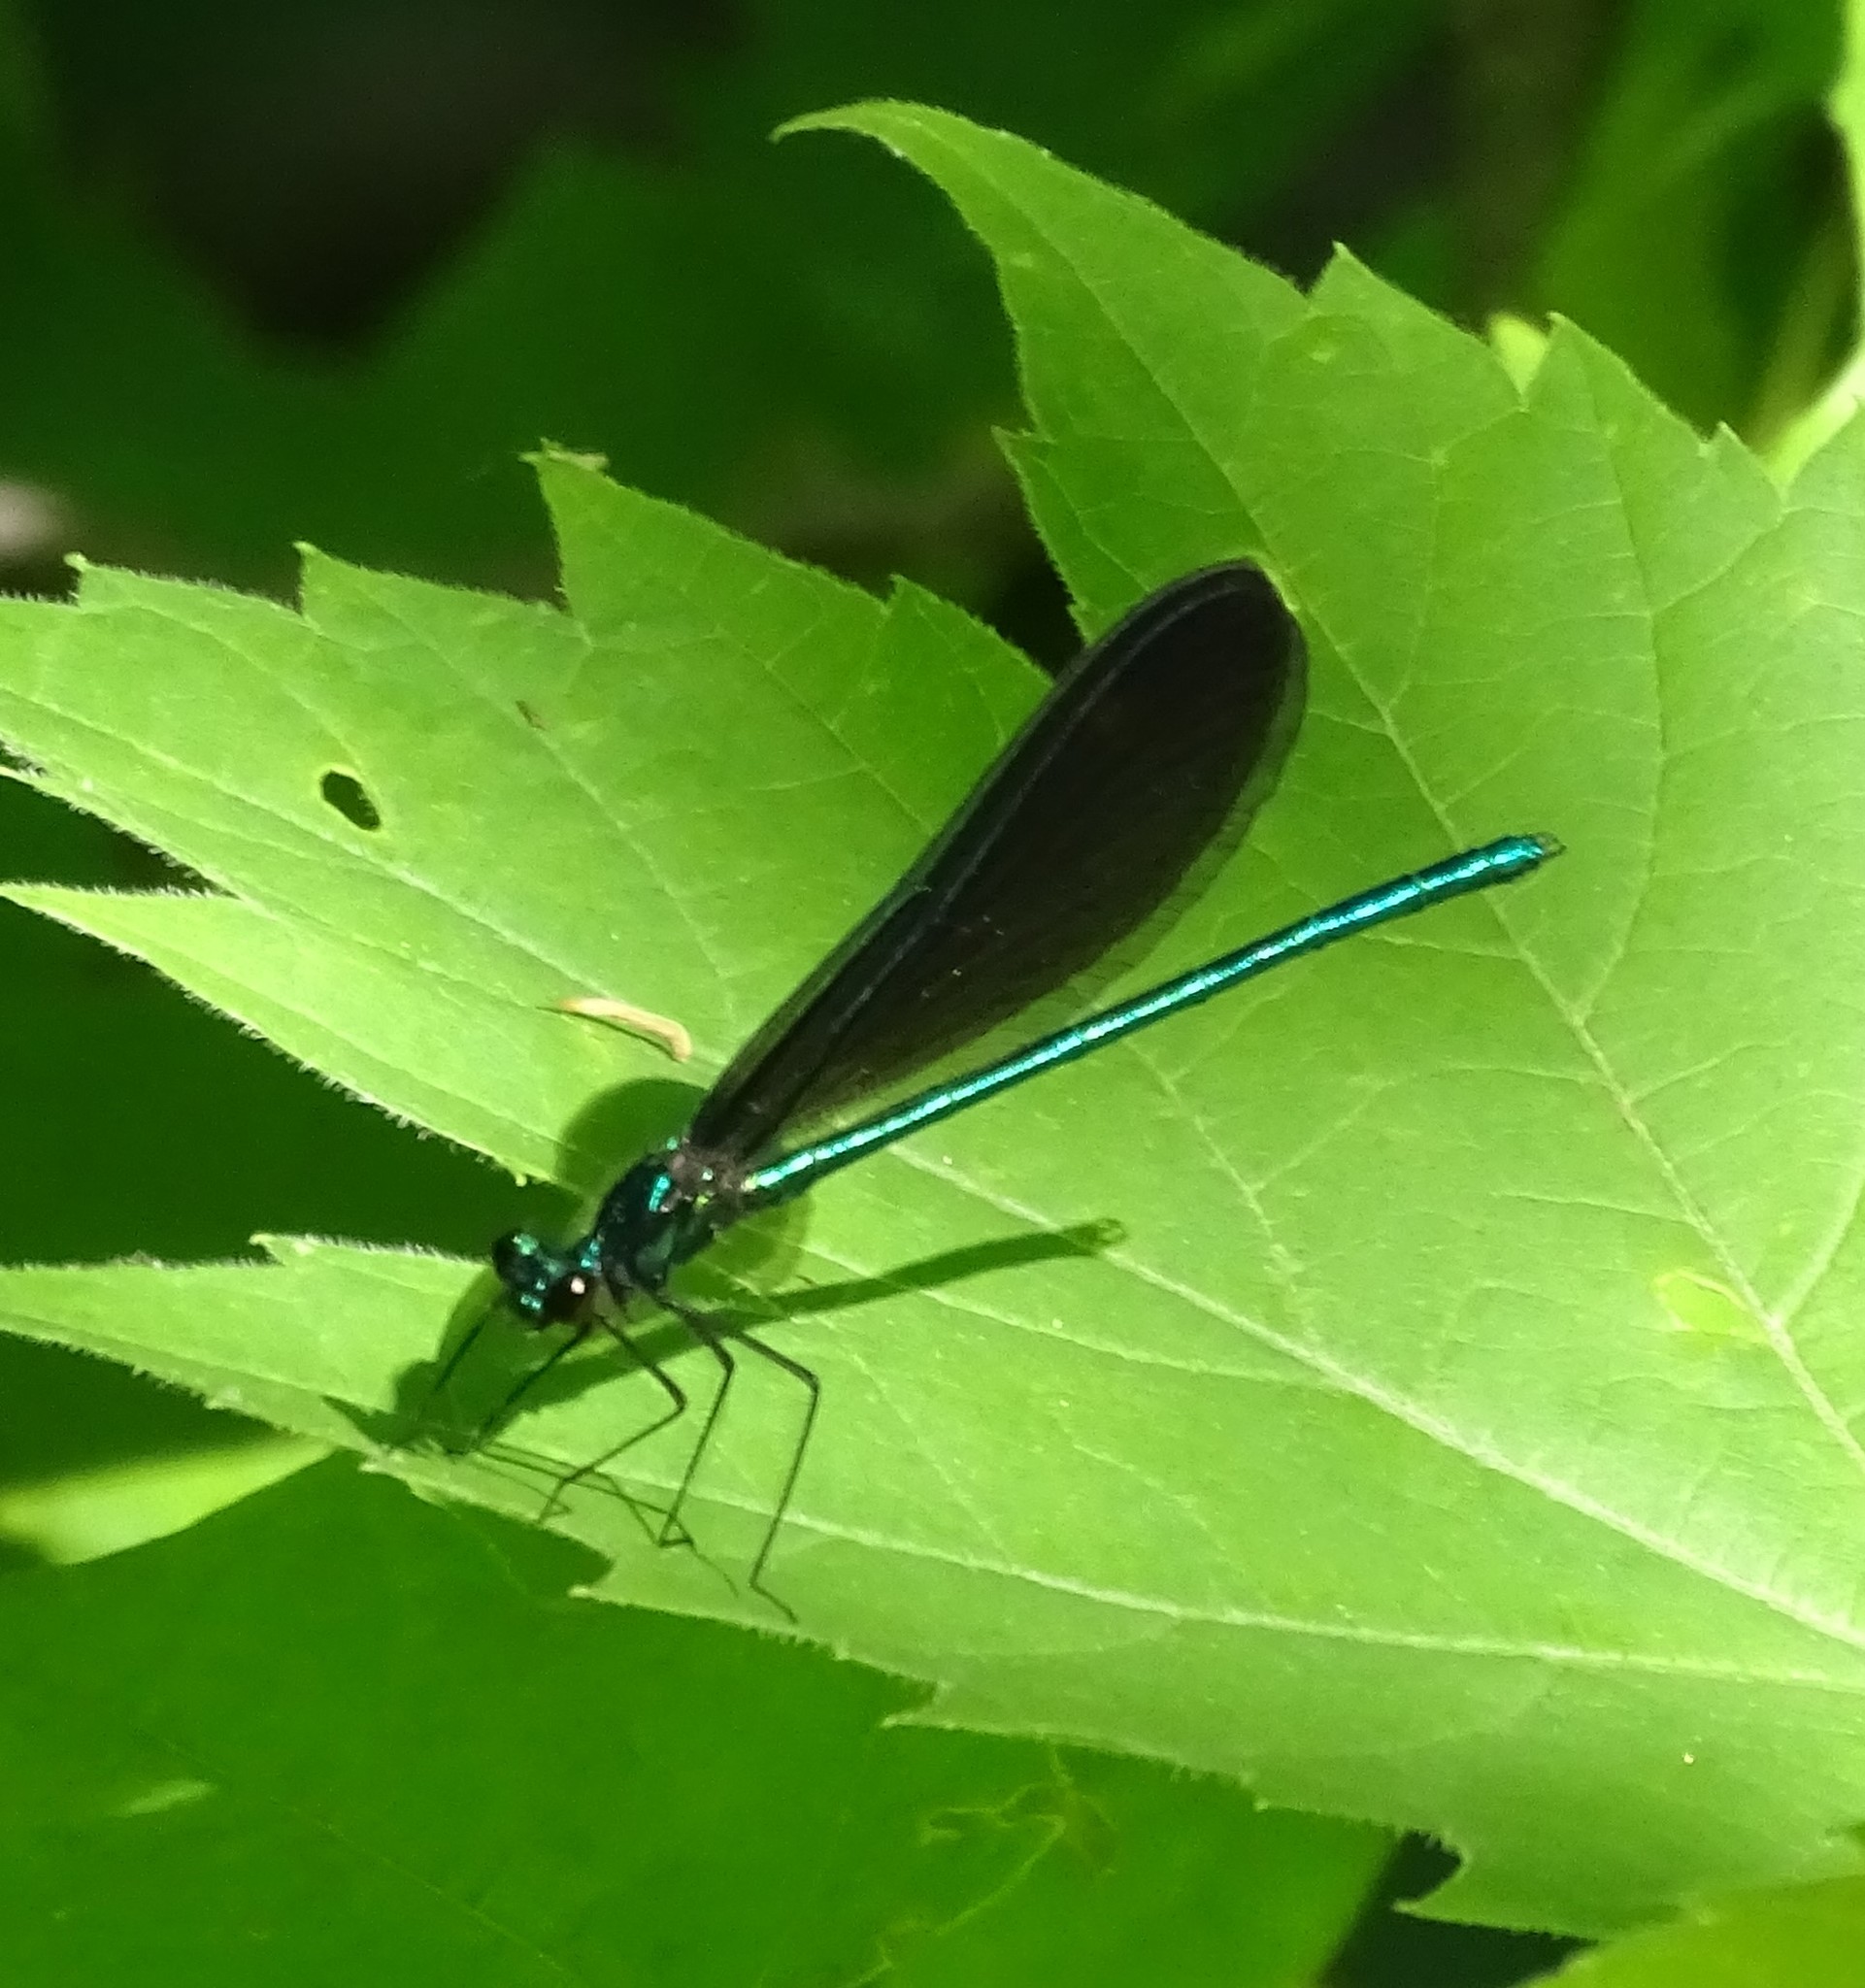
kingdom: Animalia
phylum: Arthropoda
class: Insecta
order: Odonata
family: Calopterygidae
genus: Calopteryx
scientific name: Calopteryx maculata
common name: Ebony jewelwing
